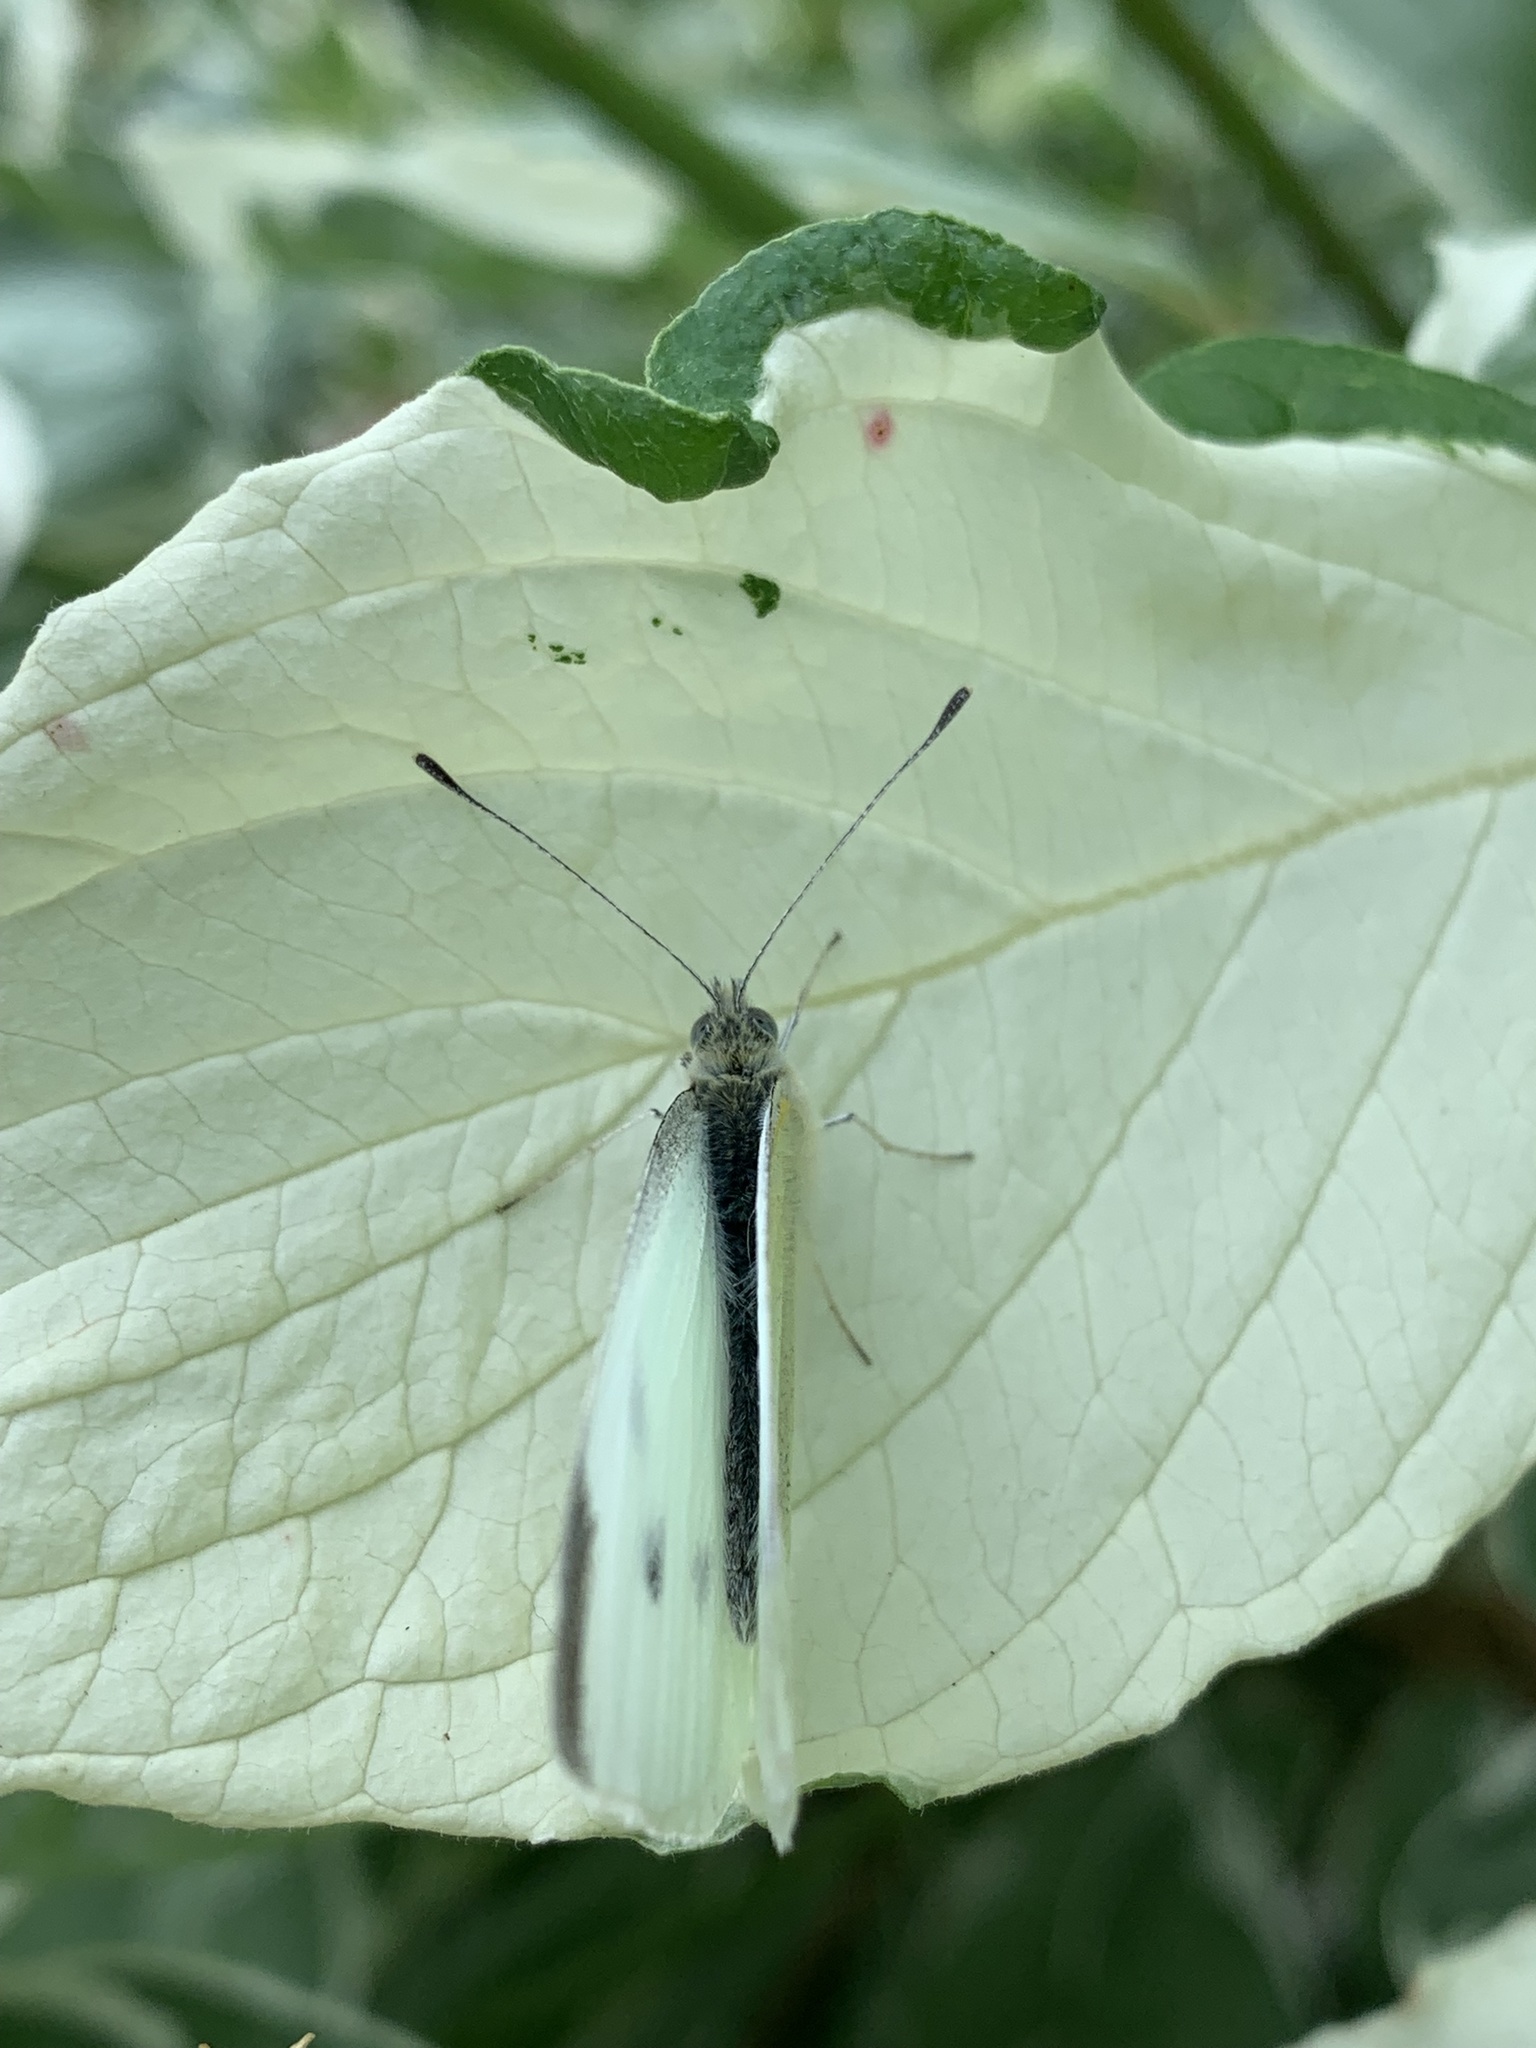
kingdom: Animalia
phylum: Arthropoda
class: Insecta
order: Lepidoptera
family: Pieridae
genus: Pieris
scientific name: Pieris rapae
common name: Small white
